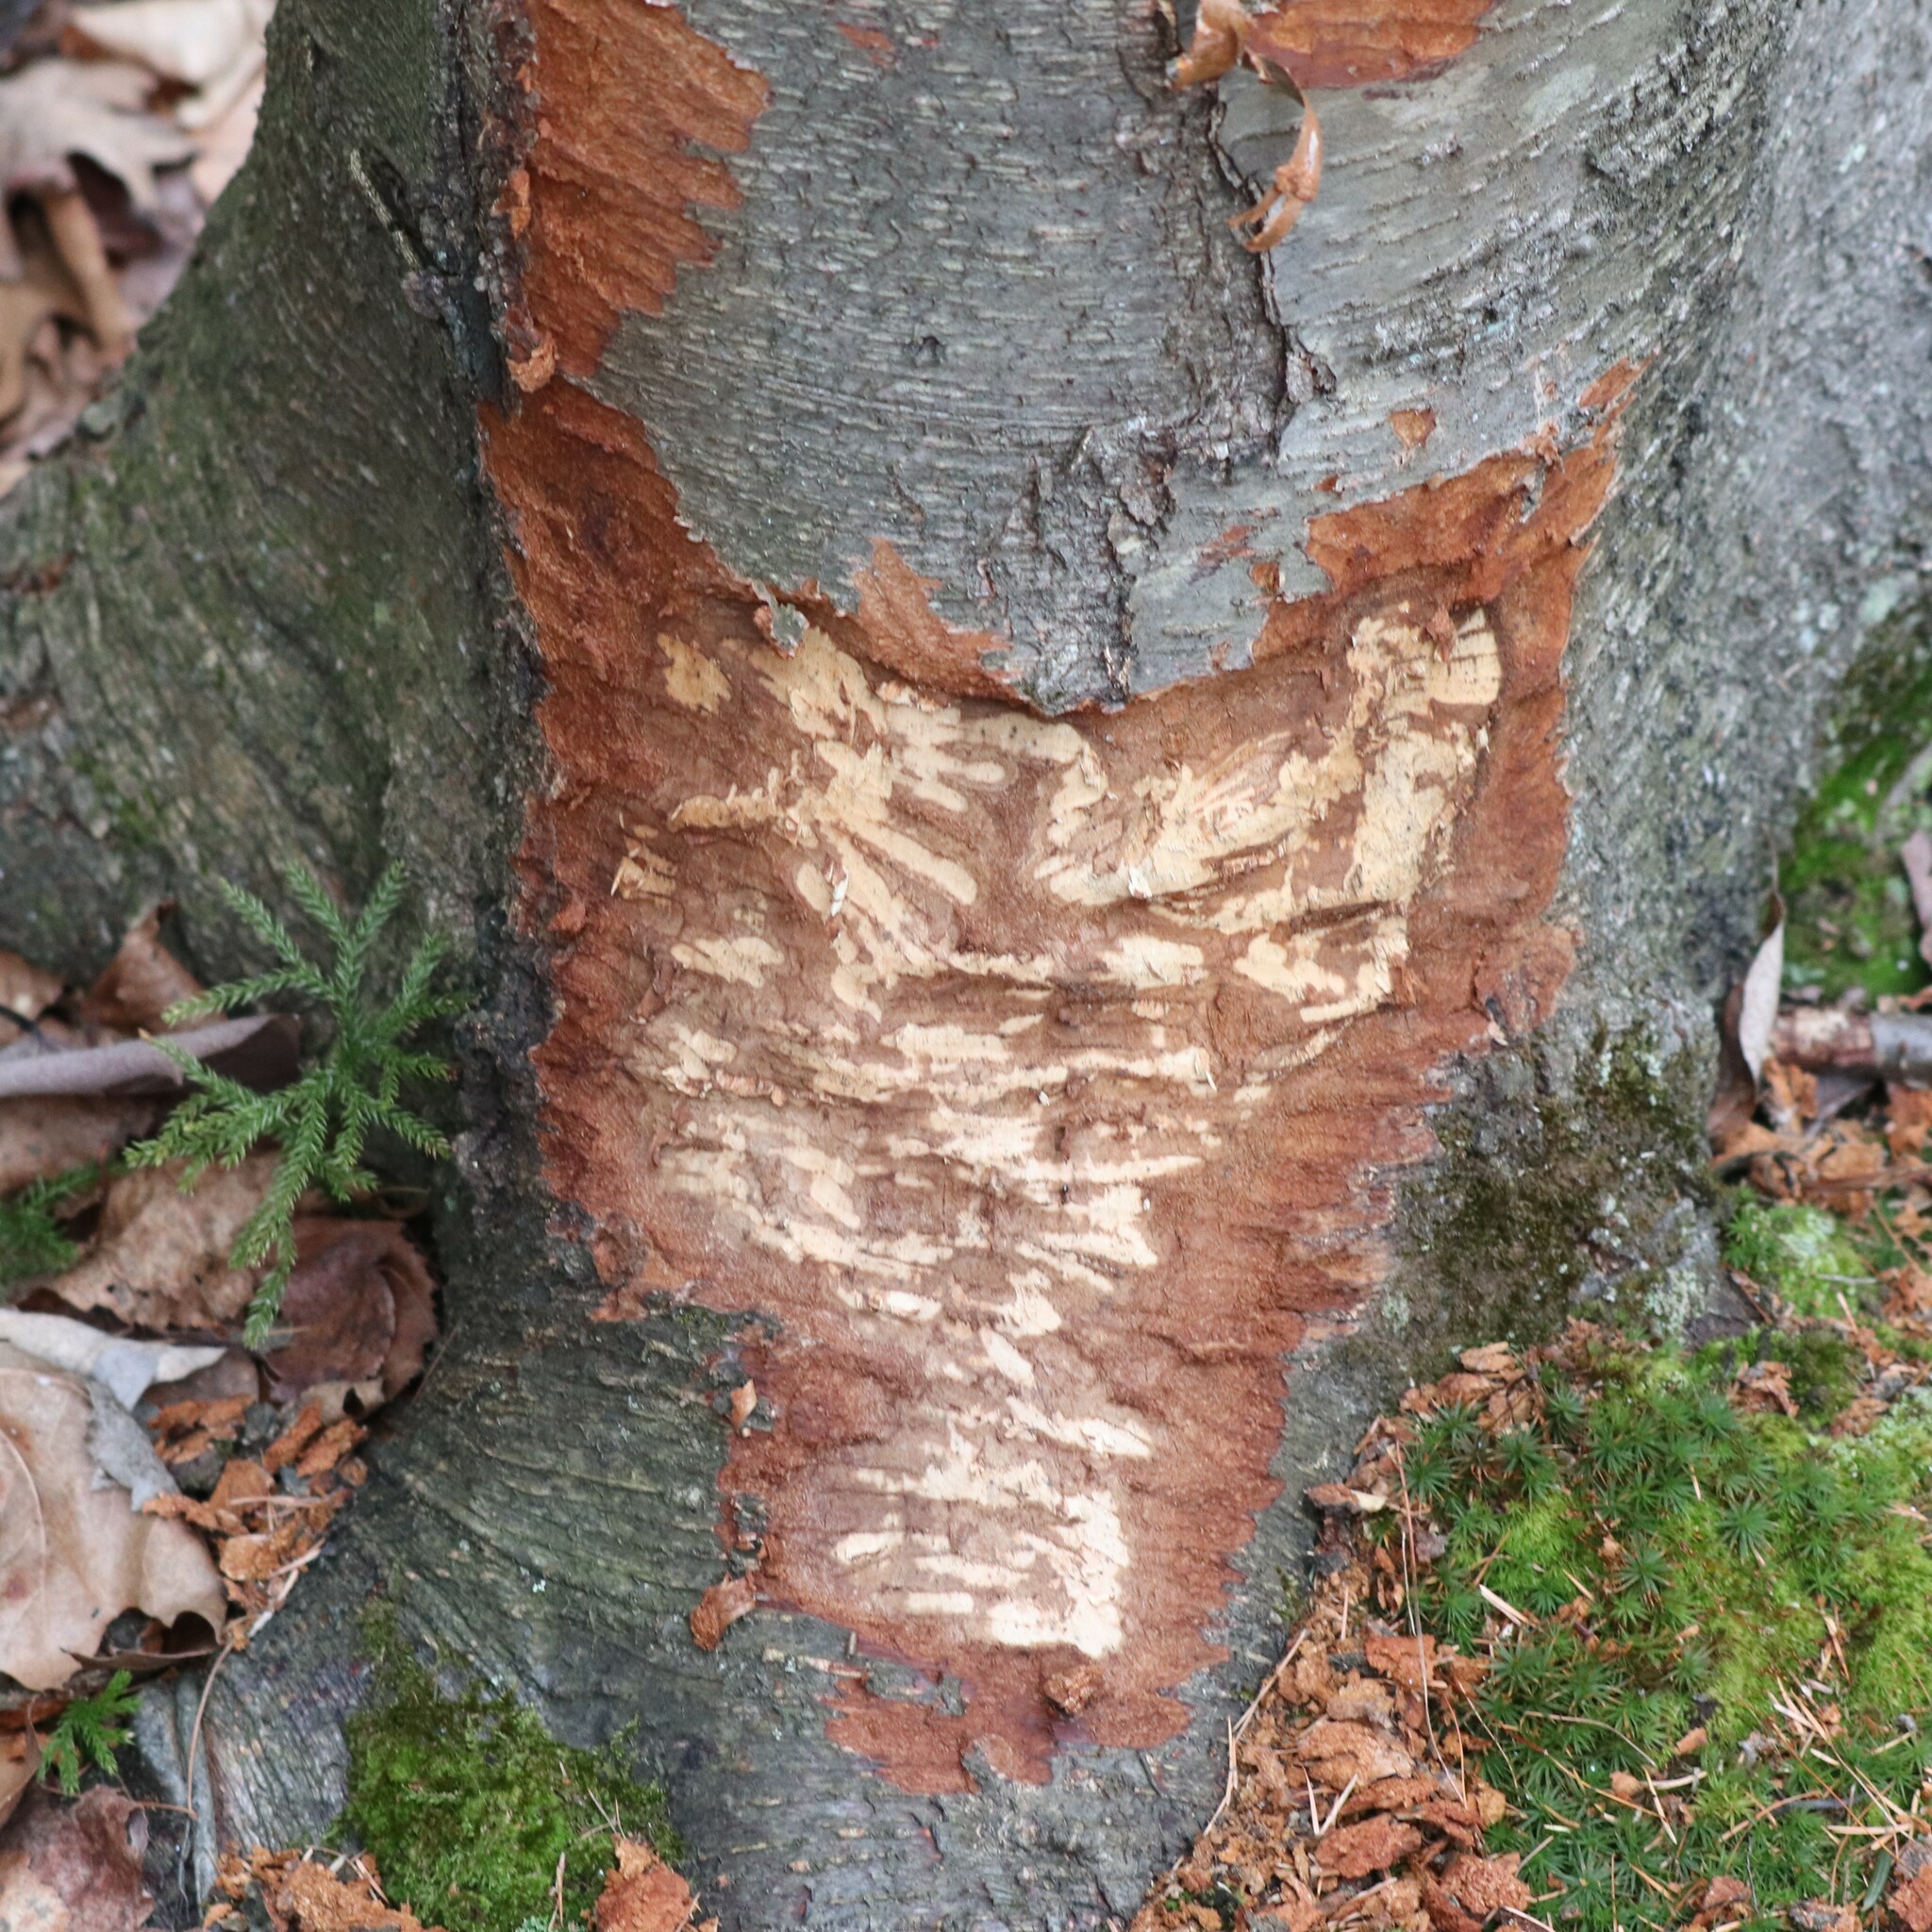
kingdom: Animalia
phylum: Chordata
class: Mammalia
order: Rodentia
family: Castoridae
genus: Castor
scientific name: Castor canadensis
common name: American beaver
